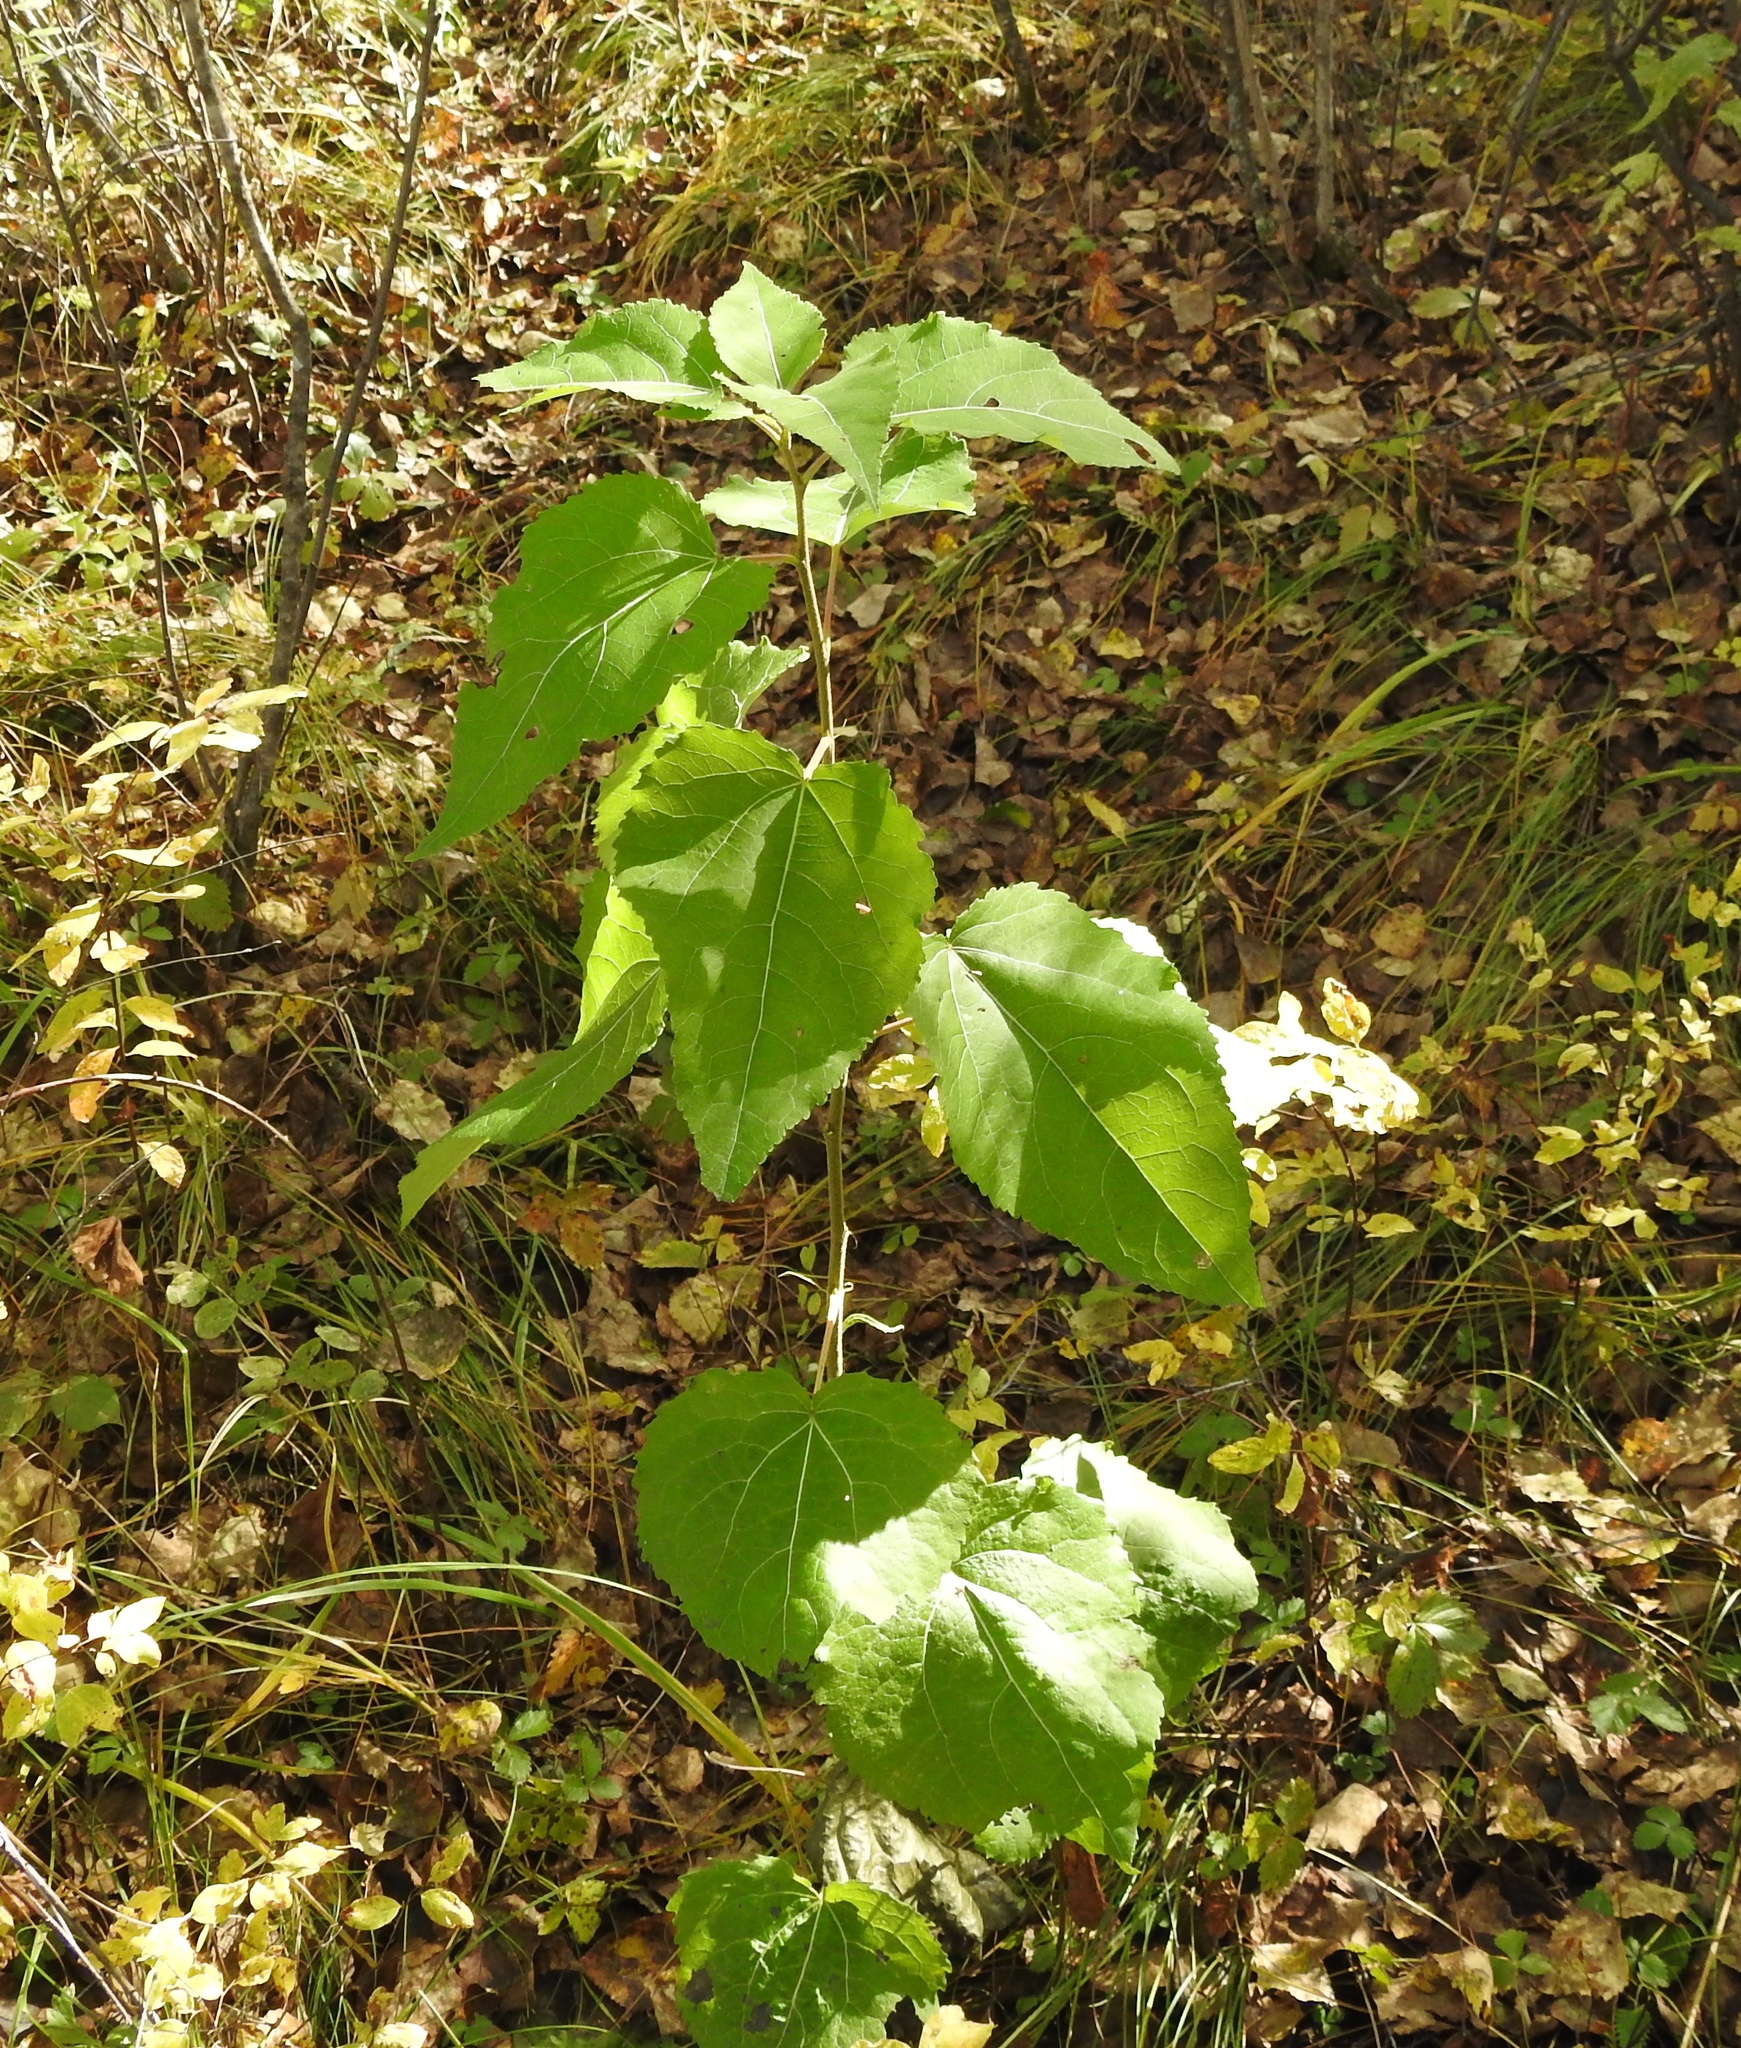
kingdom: Plantae
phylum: Tracheophyta
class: Magnoliopsida
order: Malpighiales
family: Salicaceae
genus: Populus
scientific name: Populus tremula
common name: European aspen
